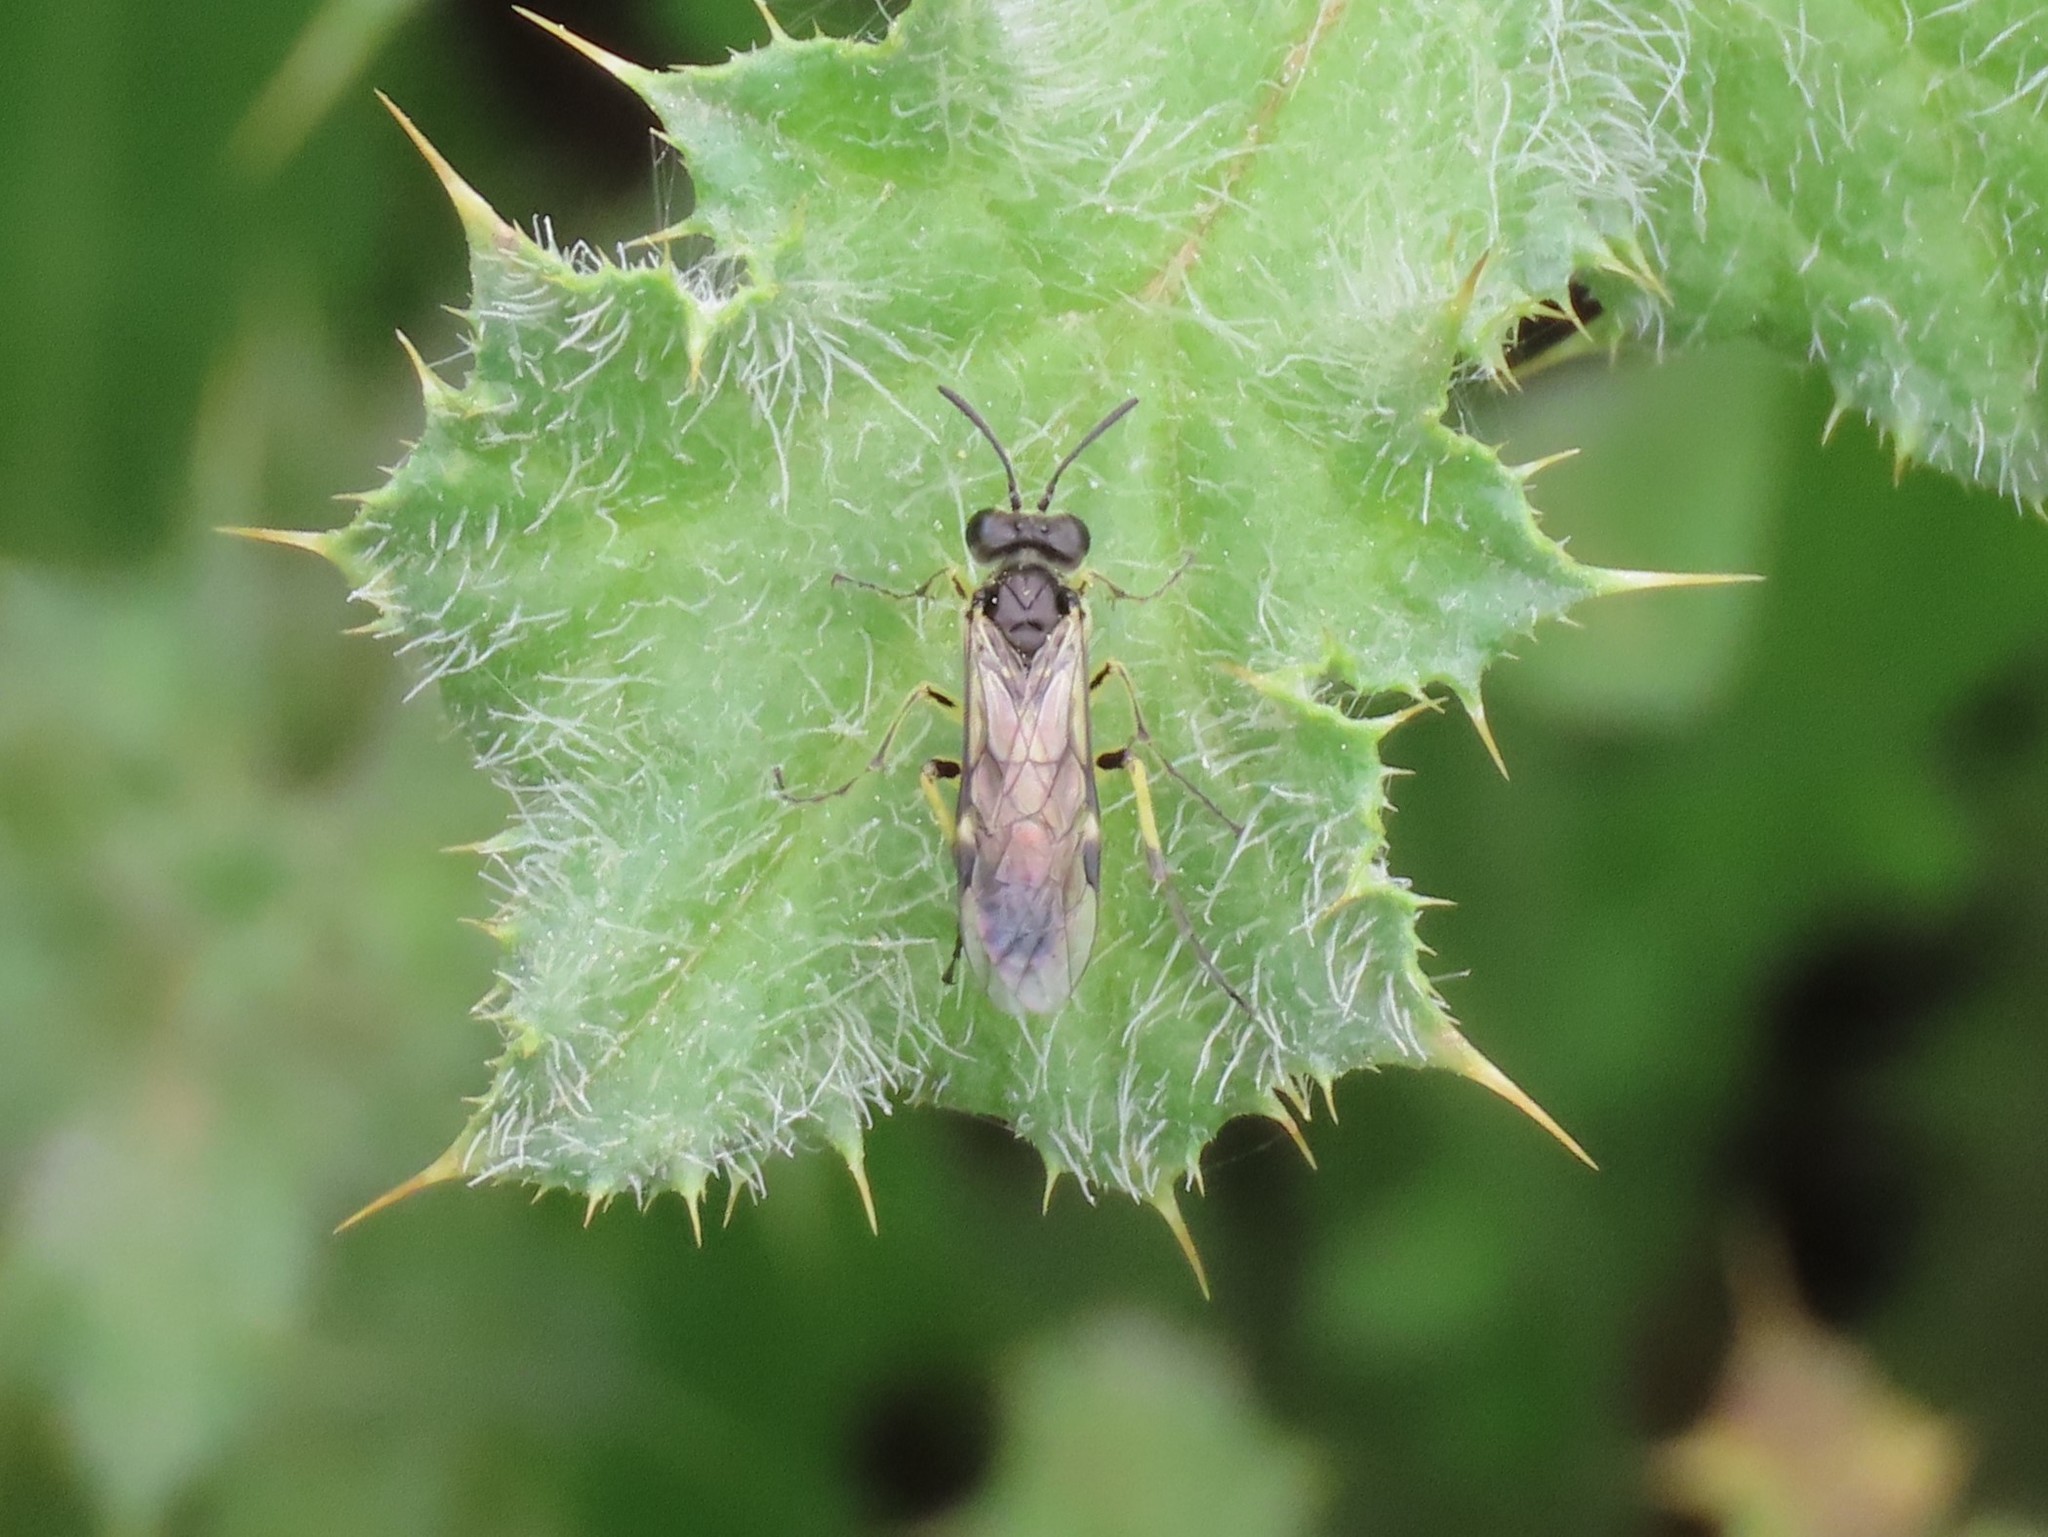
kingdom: Animalia
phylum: Arthropoda
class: Insecta
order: Hymenoptera
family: Tenthredinidae
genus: Tenthredo
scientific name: Tenthredo limbalis
